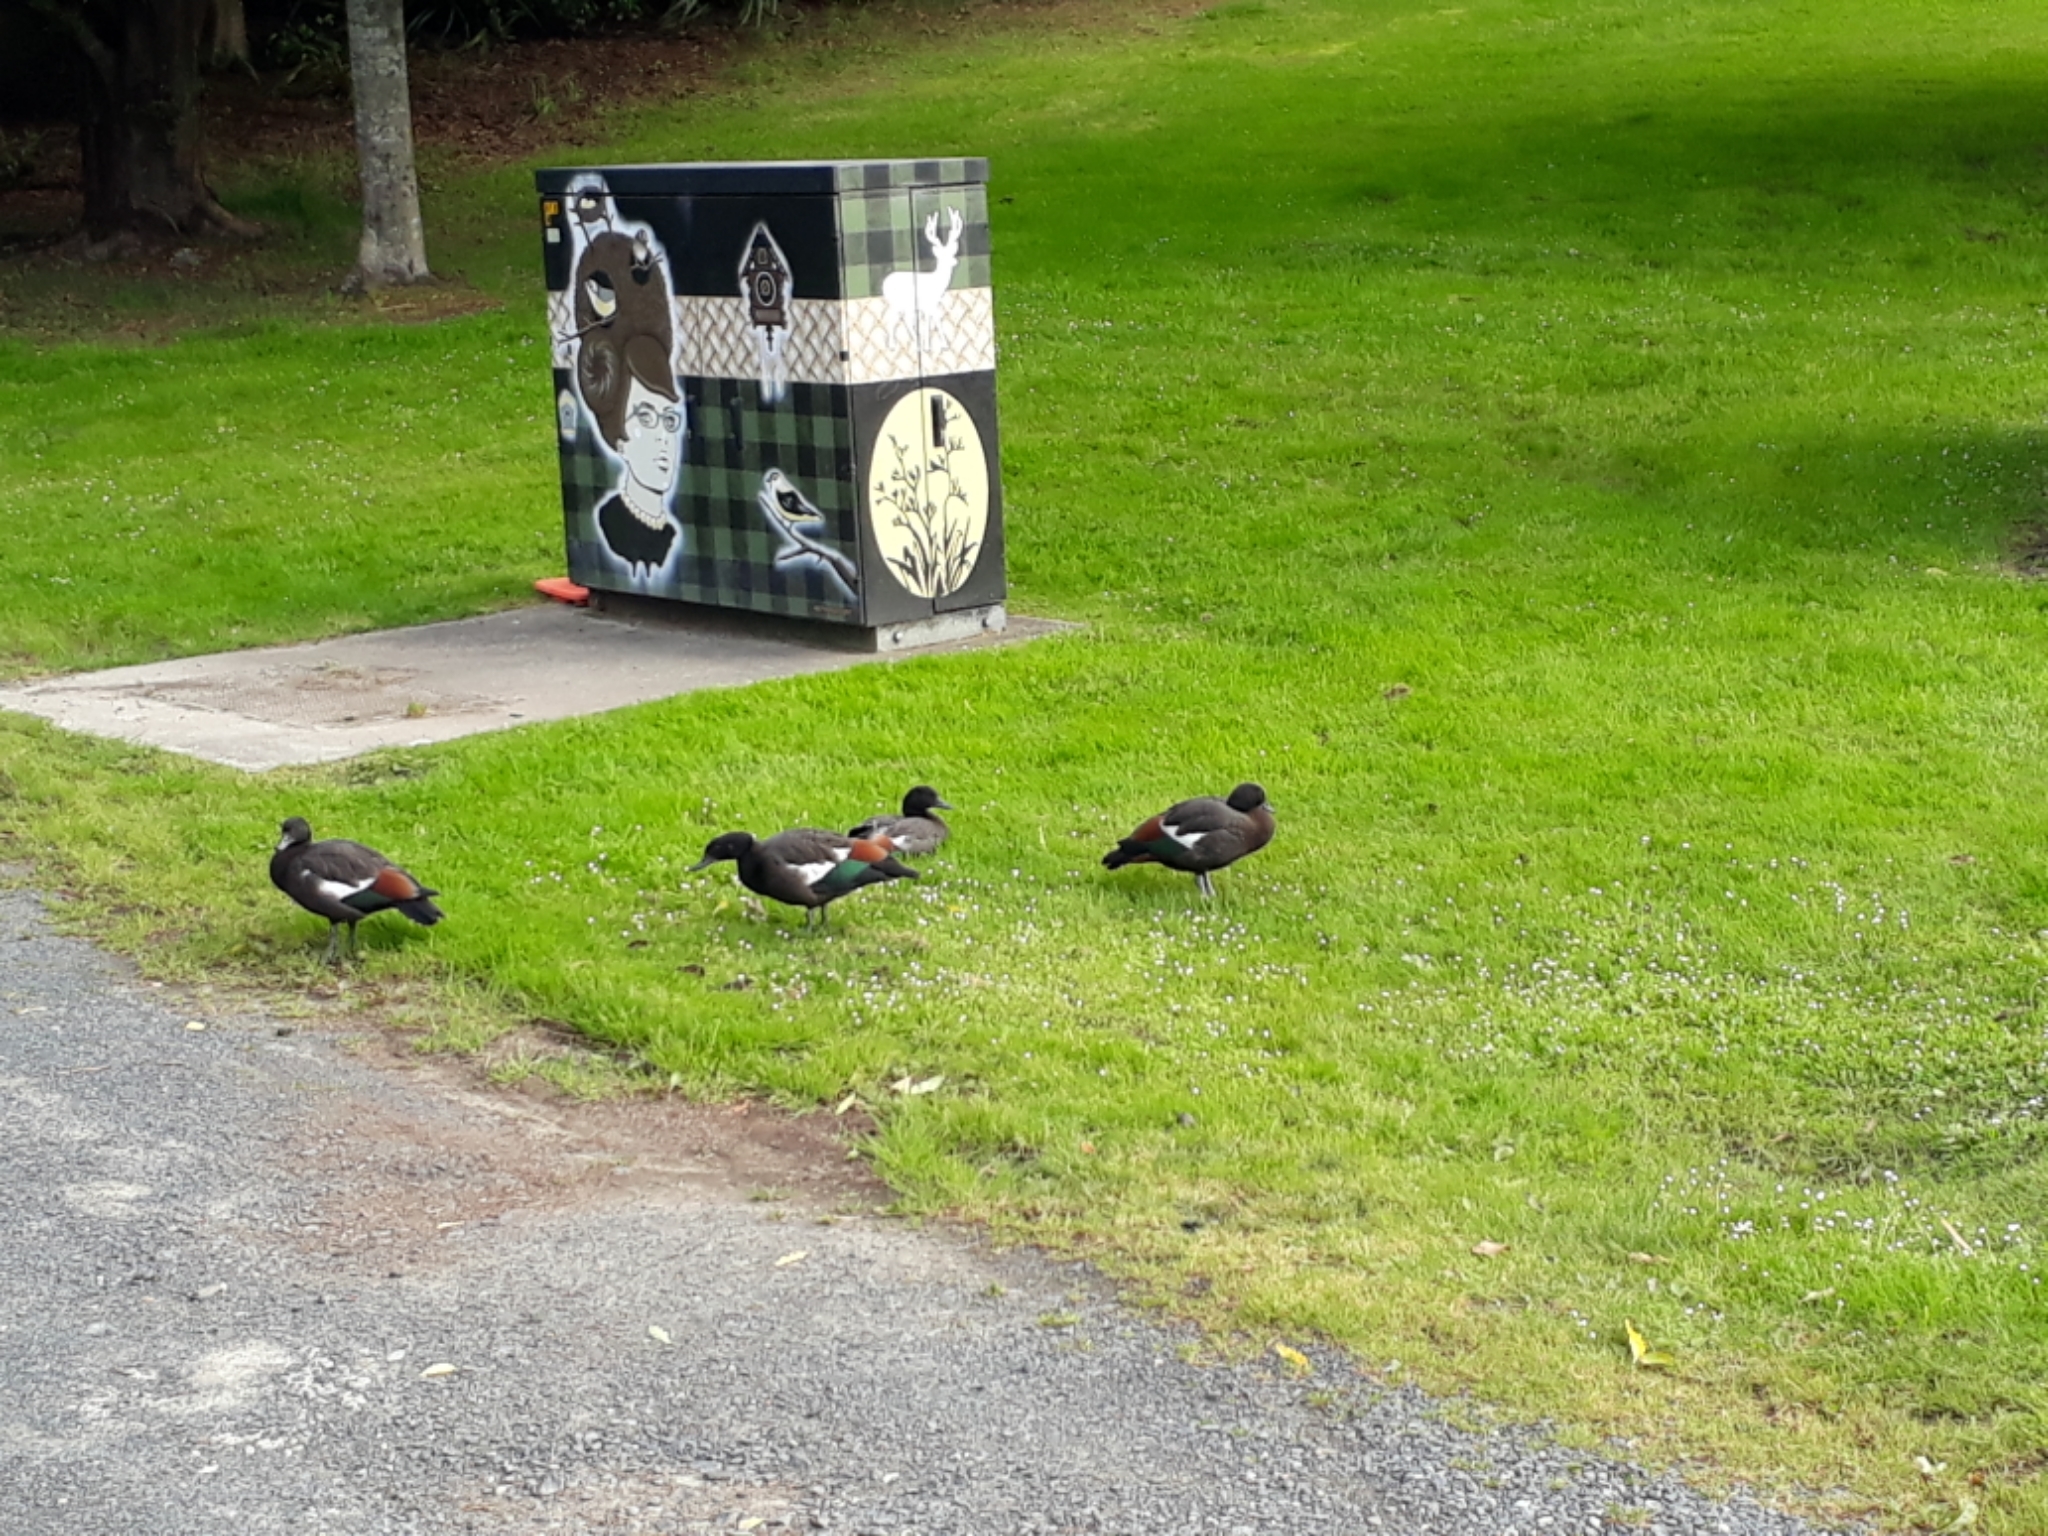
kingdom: Animalia
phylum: Chordata
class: Aves
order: Anseriformes
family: Anatidae
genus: Tadorna
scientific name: Tadorna variegata
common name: Paradise shelduck
